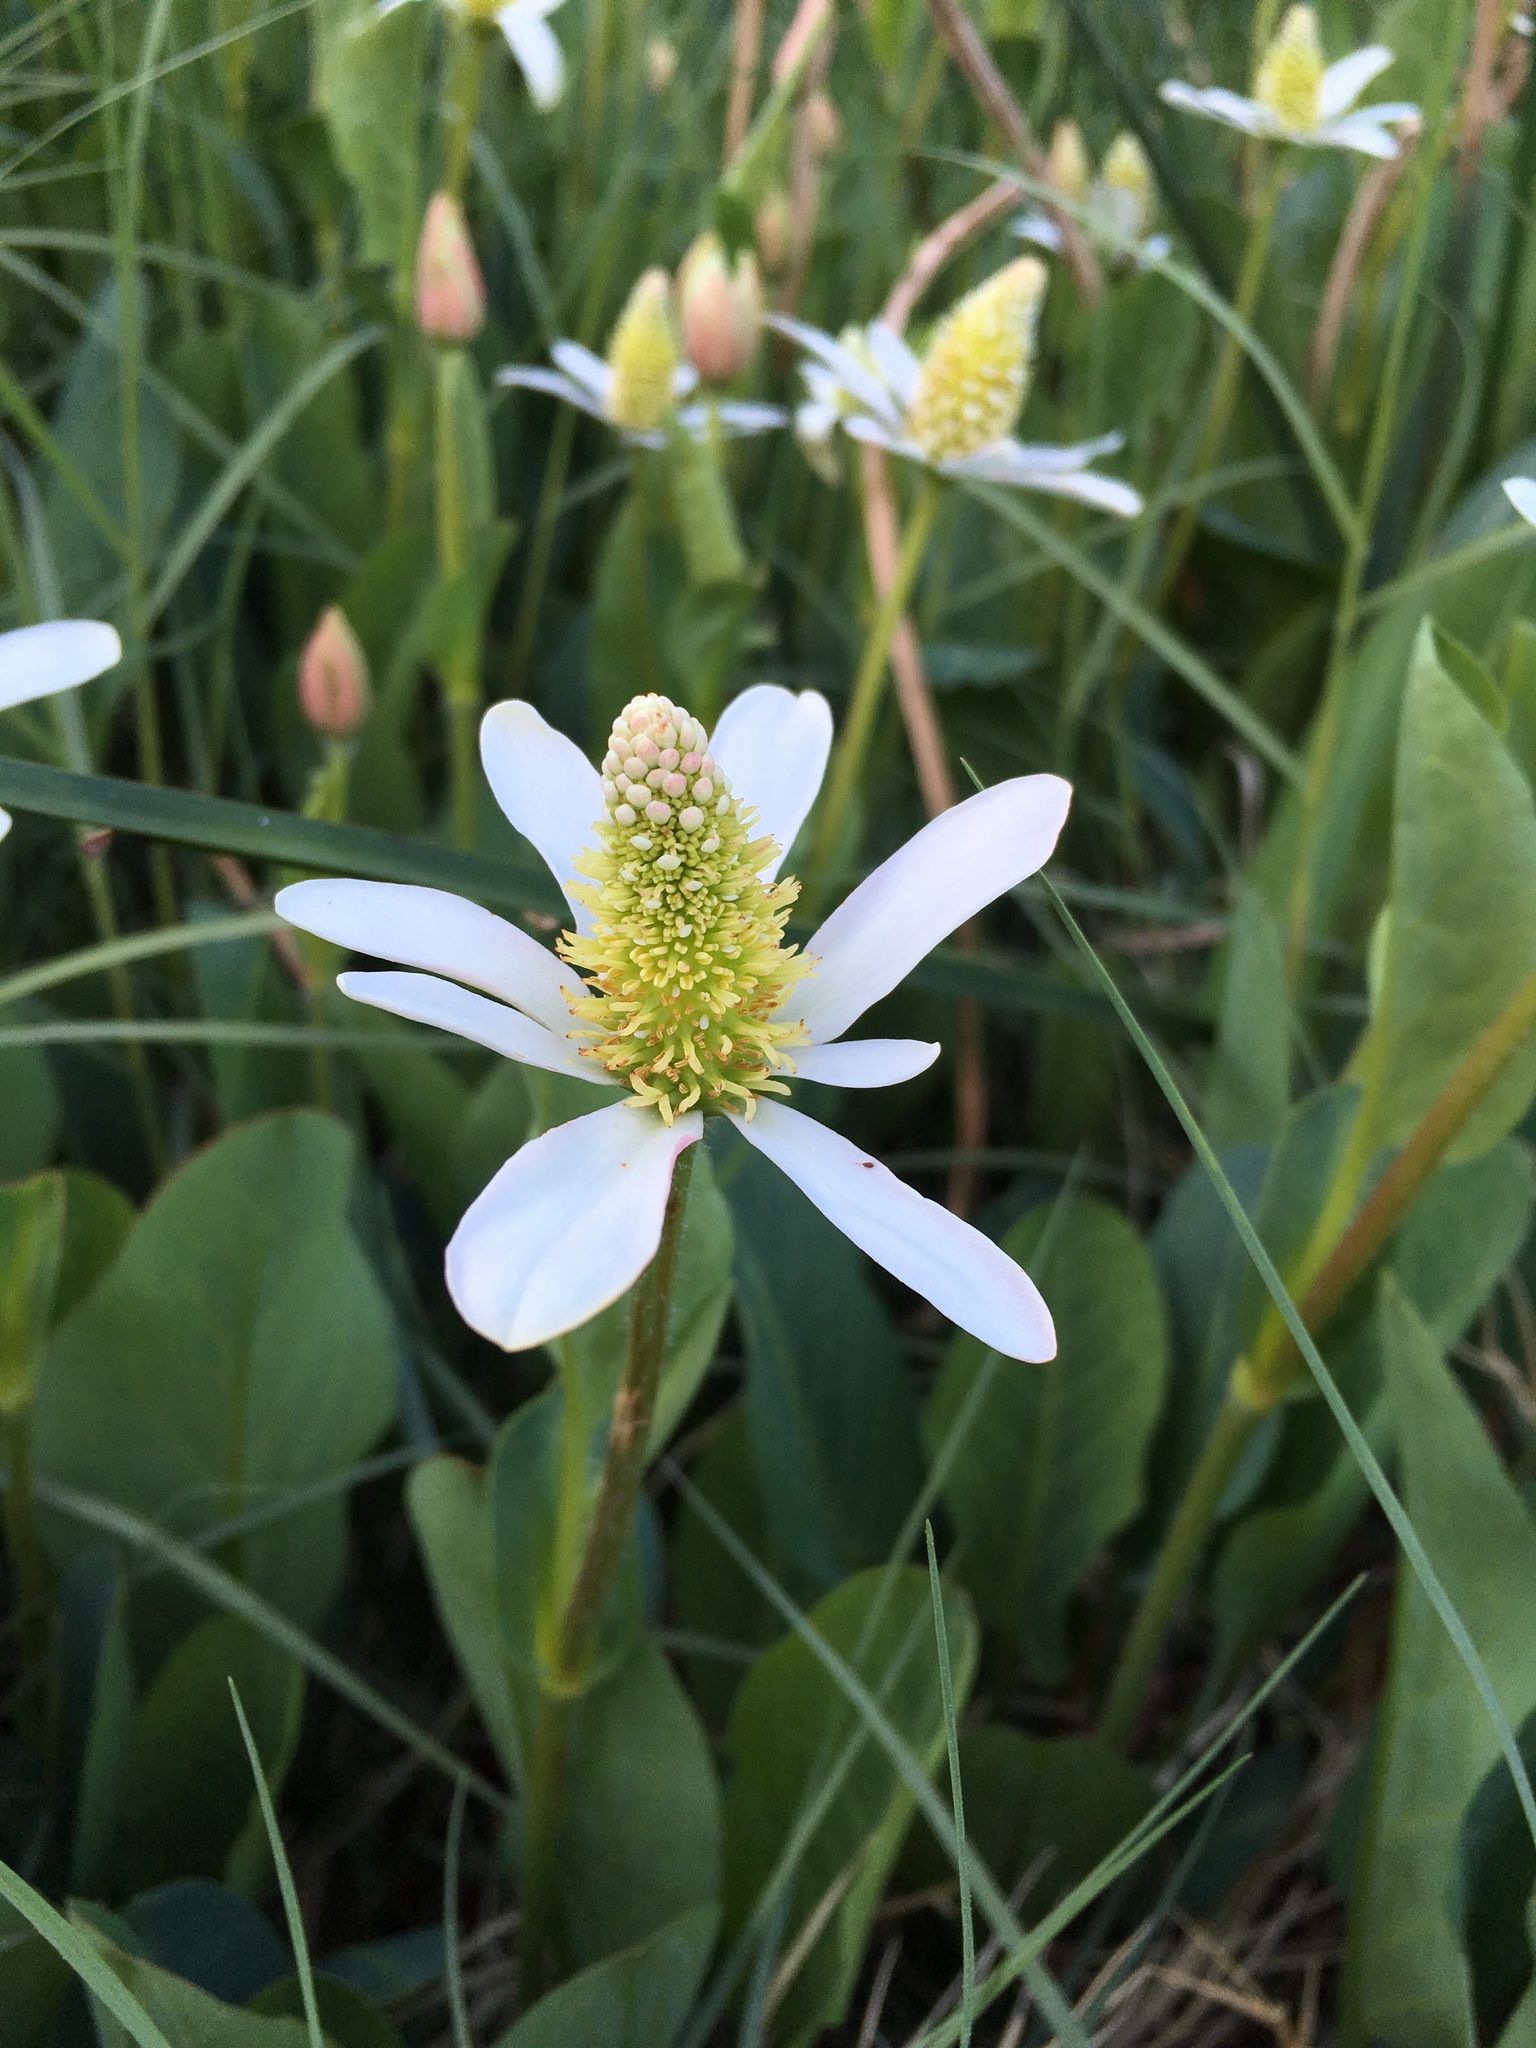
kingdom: Plantae
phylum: Tracheophyta
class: Magnoliopsida
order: Piperales
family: Saururaceae
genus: Anemopsis
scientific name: Anemopsis californica
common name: Apache-beads
